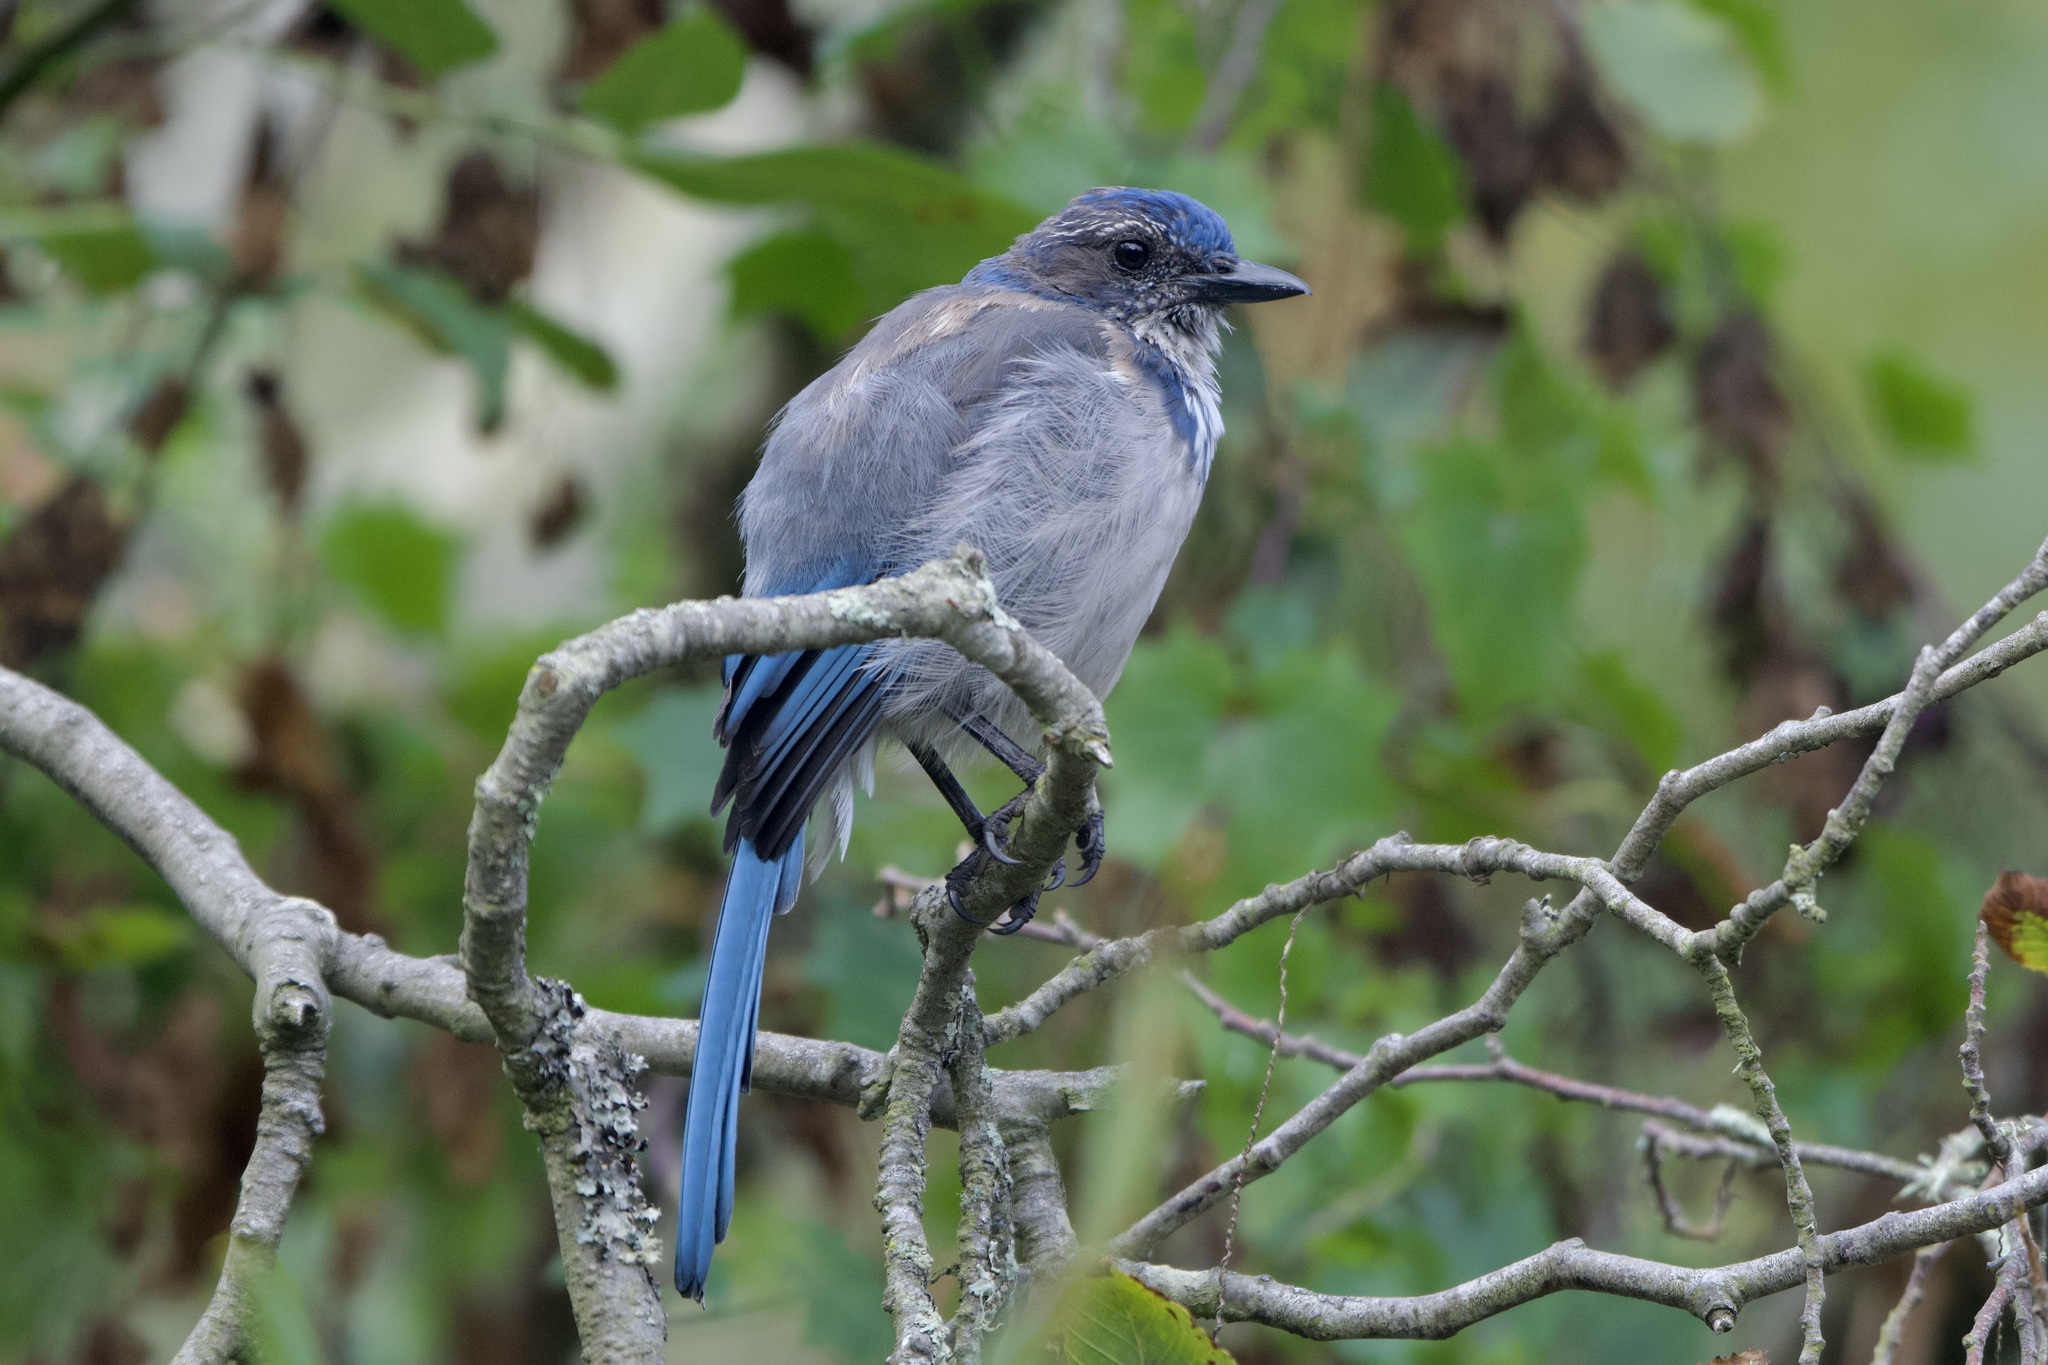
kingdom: Animalia
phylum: Chordata
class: Aves
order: Passeriformes
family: Corvidae
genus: Aphelocoma
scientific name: Aphelocoma californica
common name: California scrub-jay
